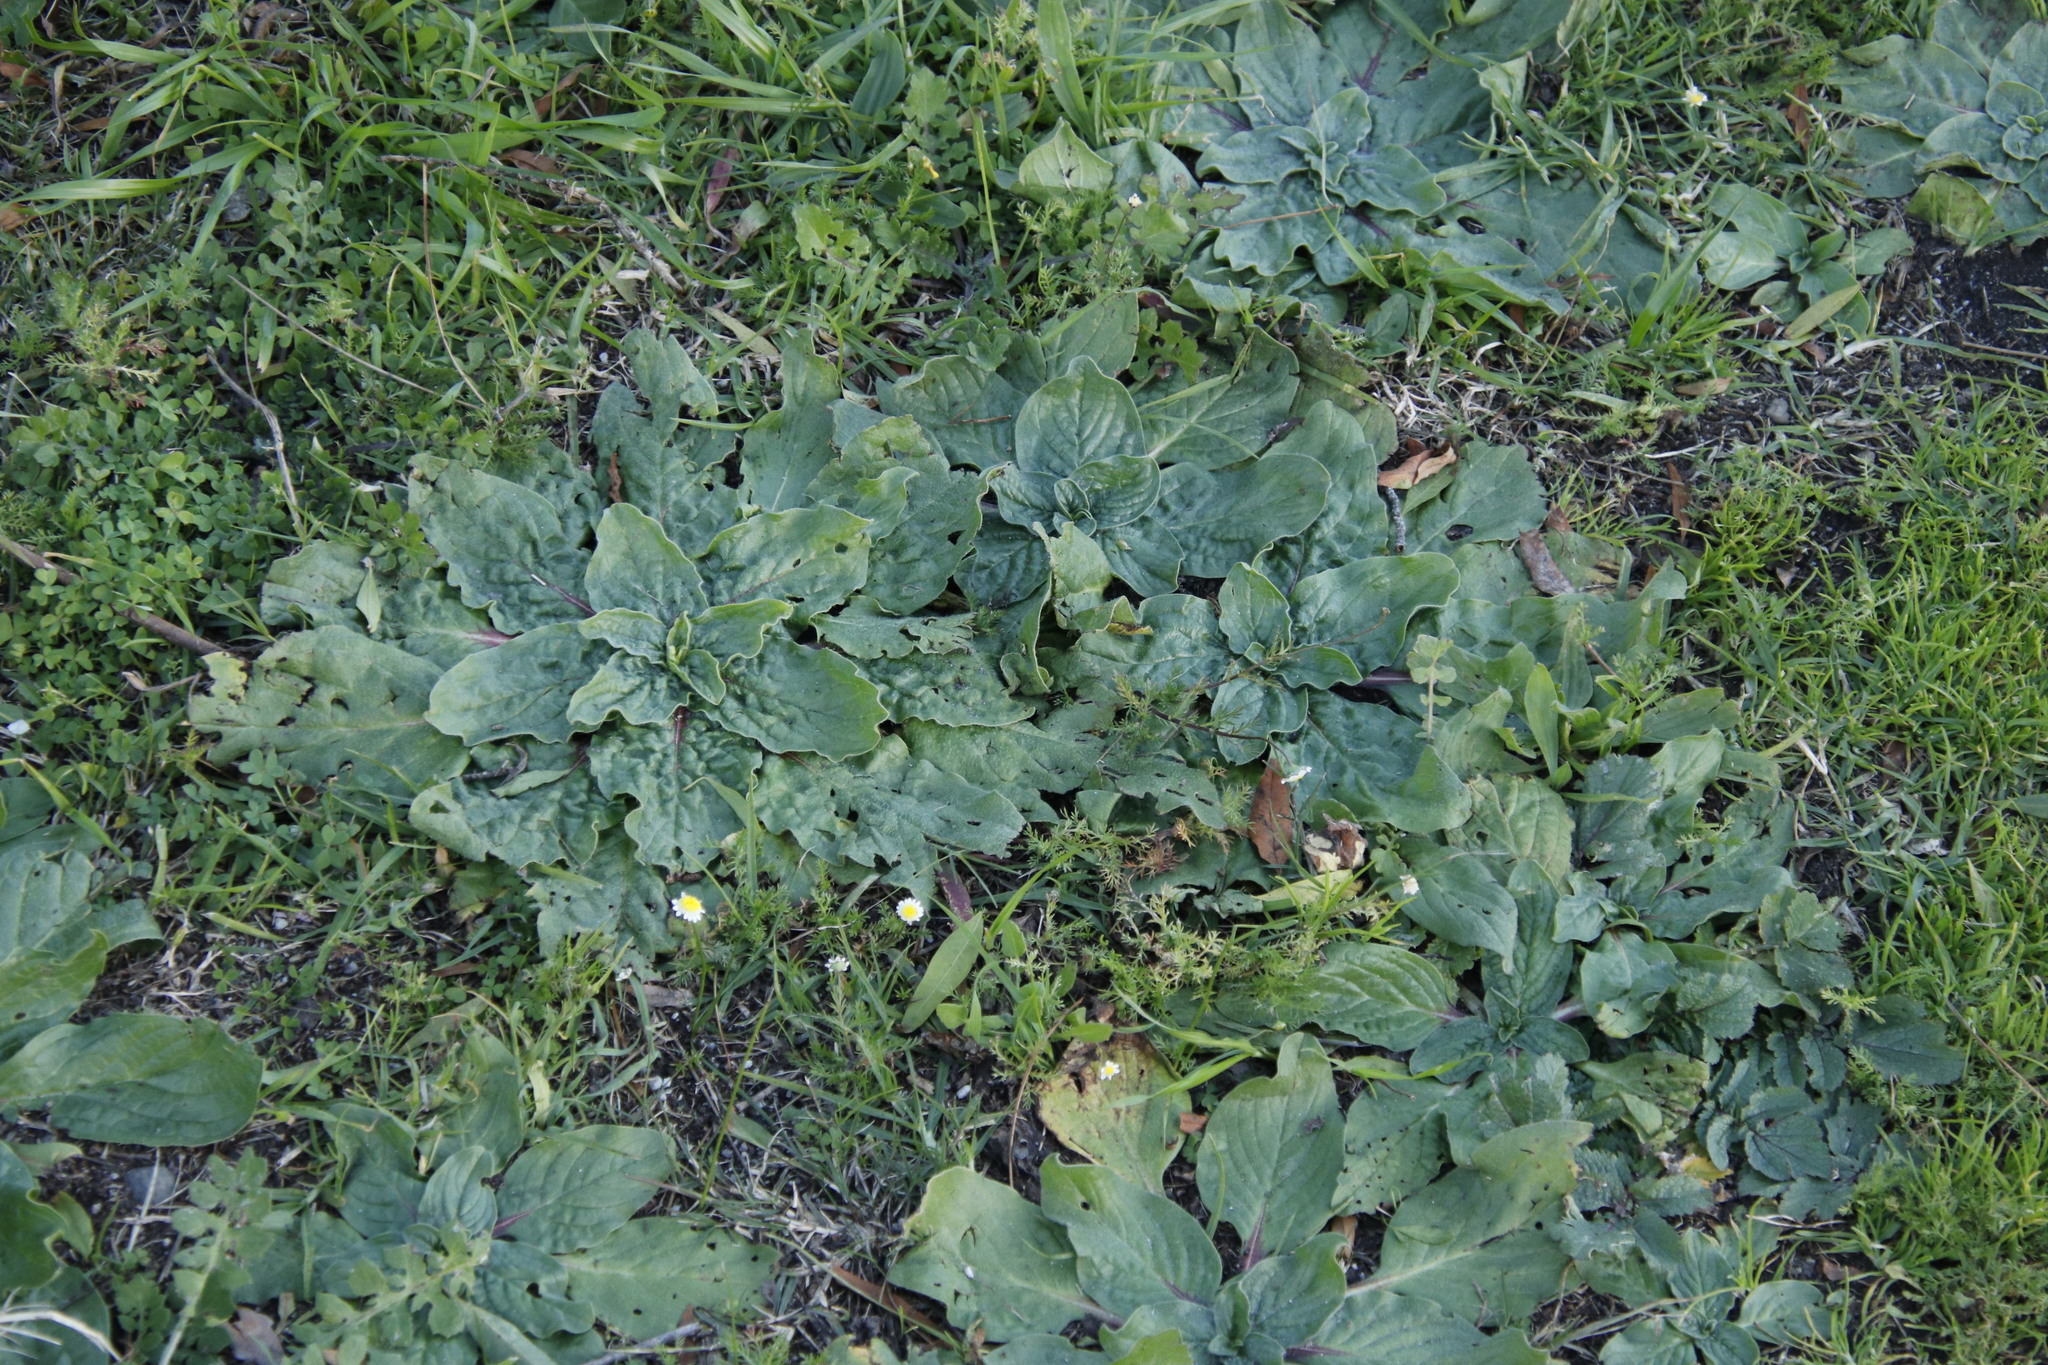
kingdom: Plantae
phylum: Tracheophyta
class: Magnoliopsida
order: Boraginales
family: Boraginaceae
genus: Echium
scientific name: Echium plantagineum
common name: Purple viper's-bugloss
